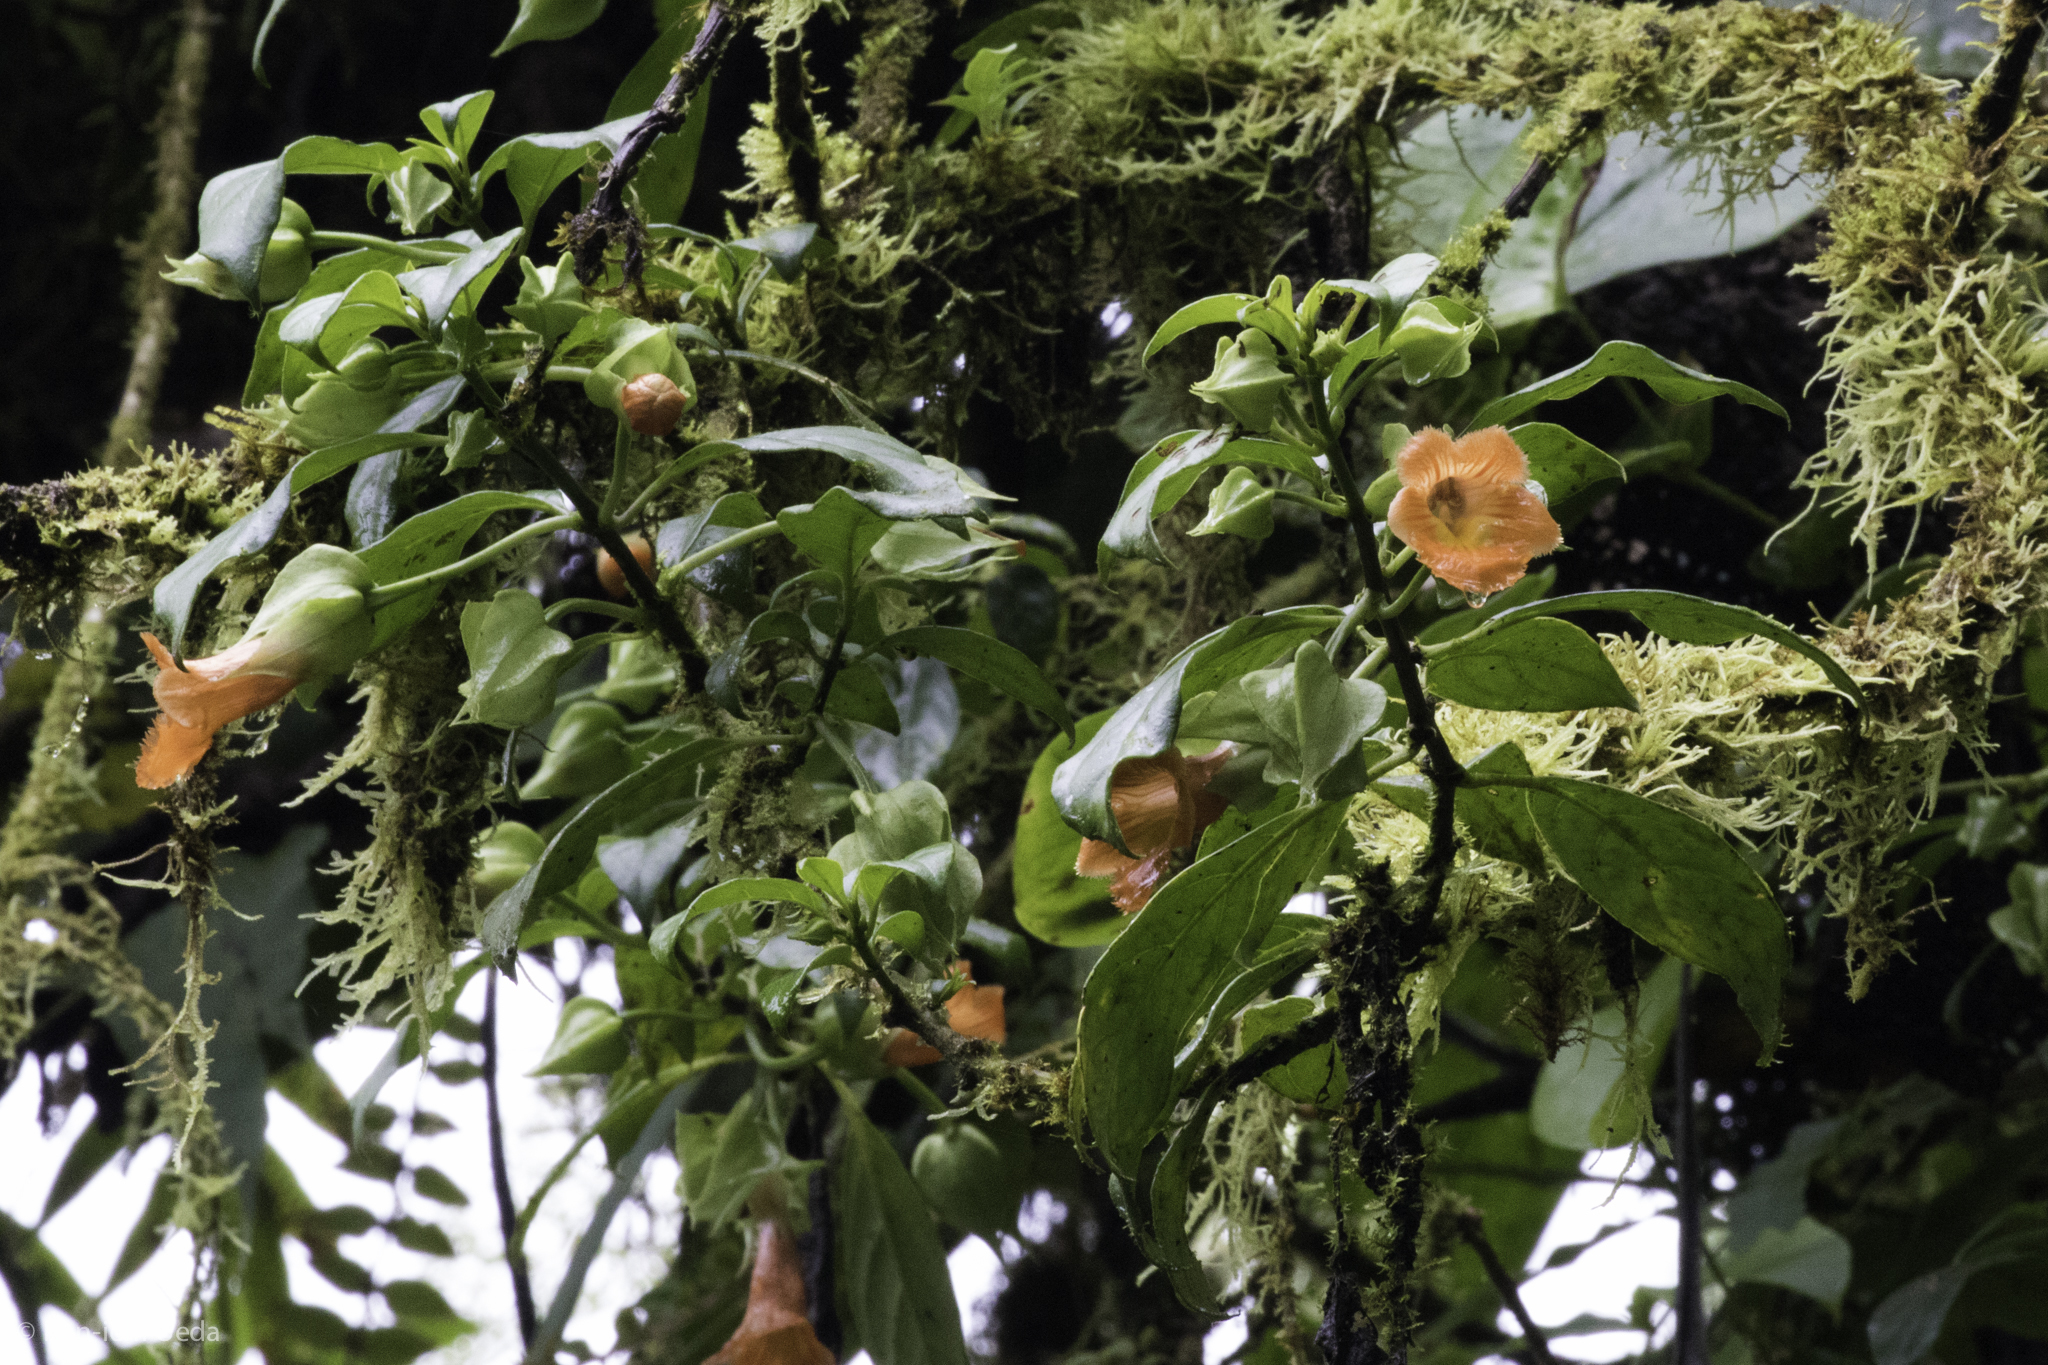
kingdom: Plantae
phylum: Tracheophyta
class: Magnoliopsida
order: Lamiales
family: Gesneriaceae
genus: Drymonia
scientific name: Drymonia rubra
